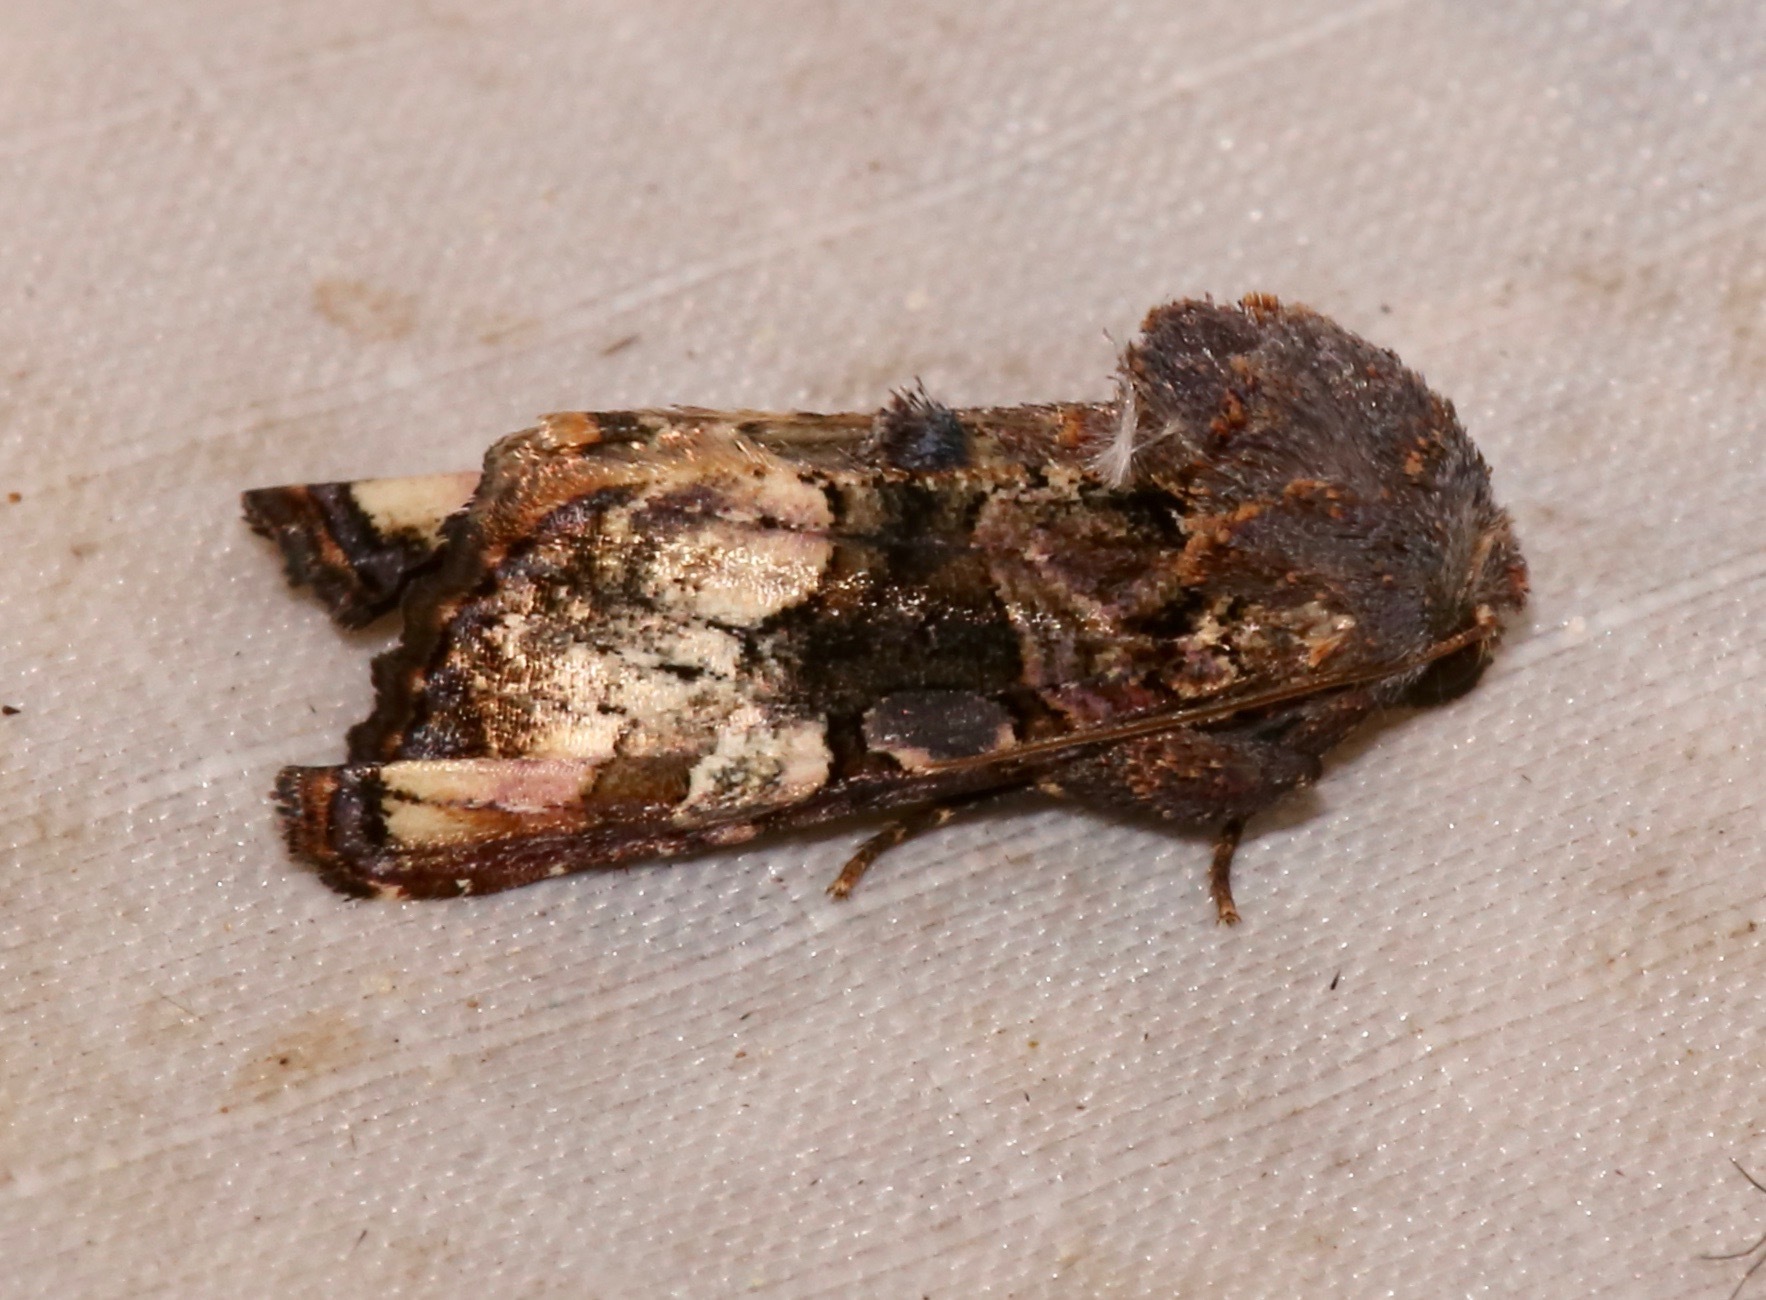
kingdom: Animalia
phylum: Arthropoda
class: Insecta
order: Lepidoptera
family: Noctuidae
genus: Euplexia
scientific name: Euplexia triplaga
